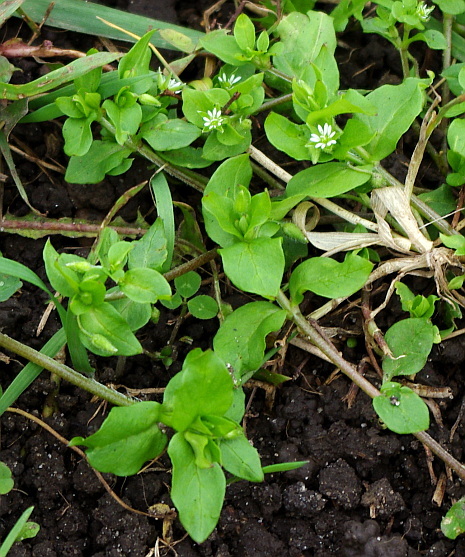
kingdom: Plantae
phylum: Tracheophyta
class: Magnoliopsida
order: Caryophyllales
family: Caryophyllaceae
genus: Stellaria
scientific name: Stellaria media
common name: Common chickweed
